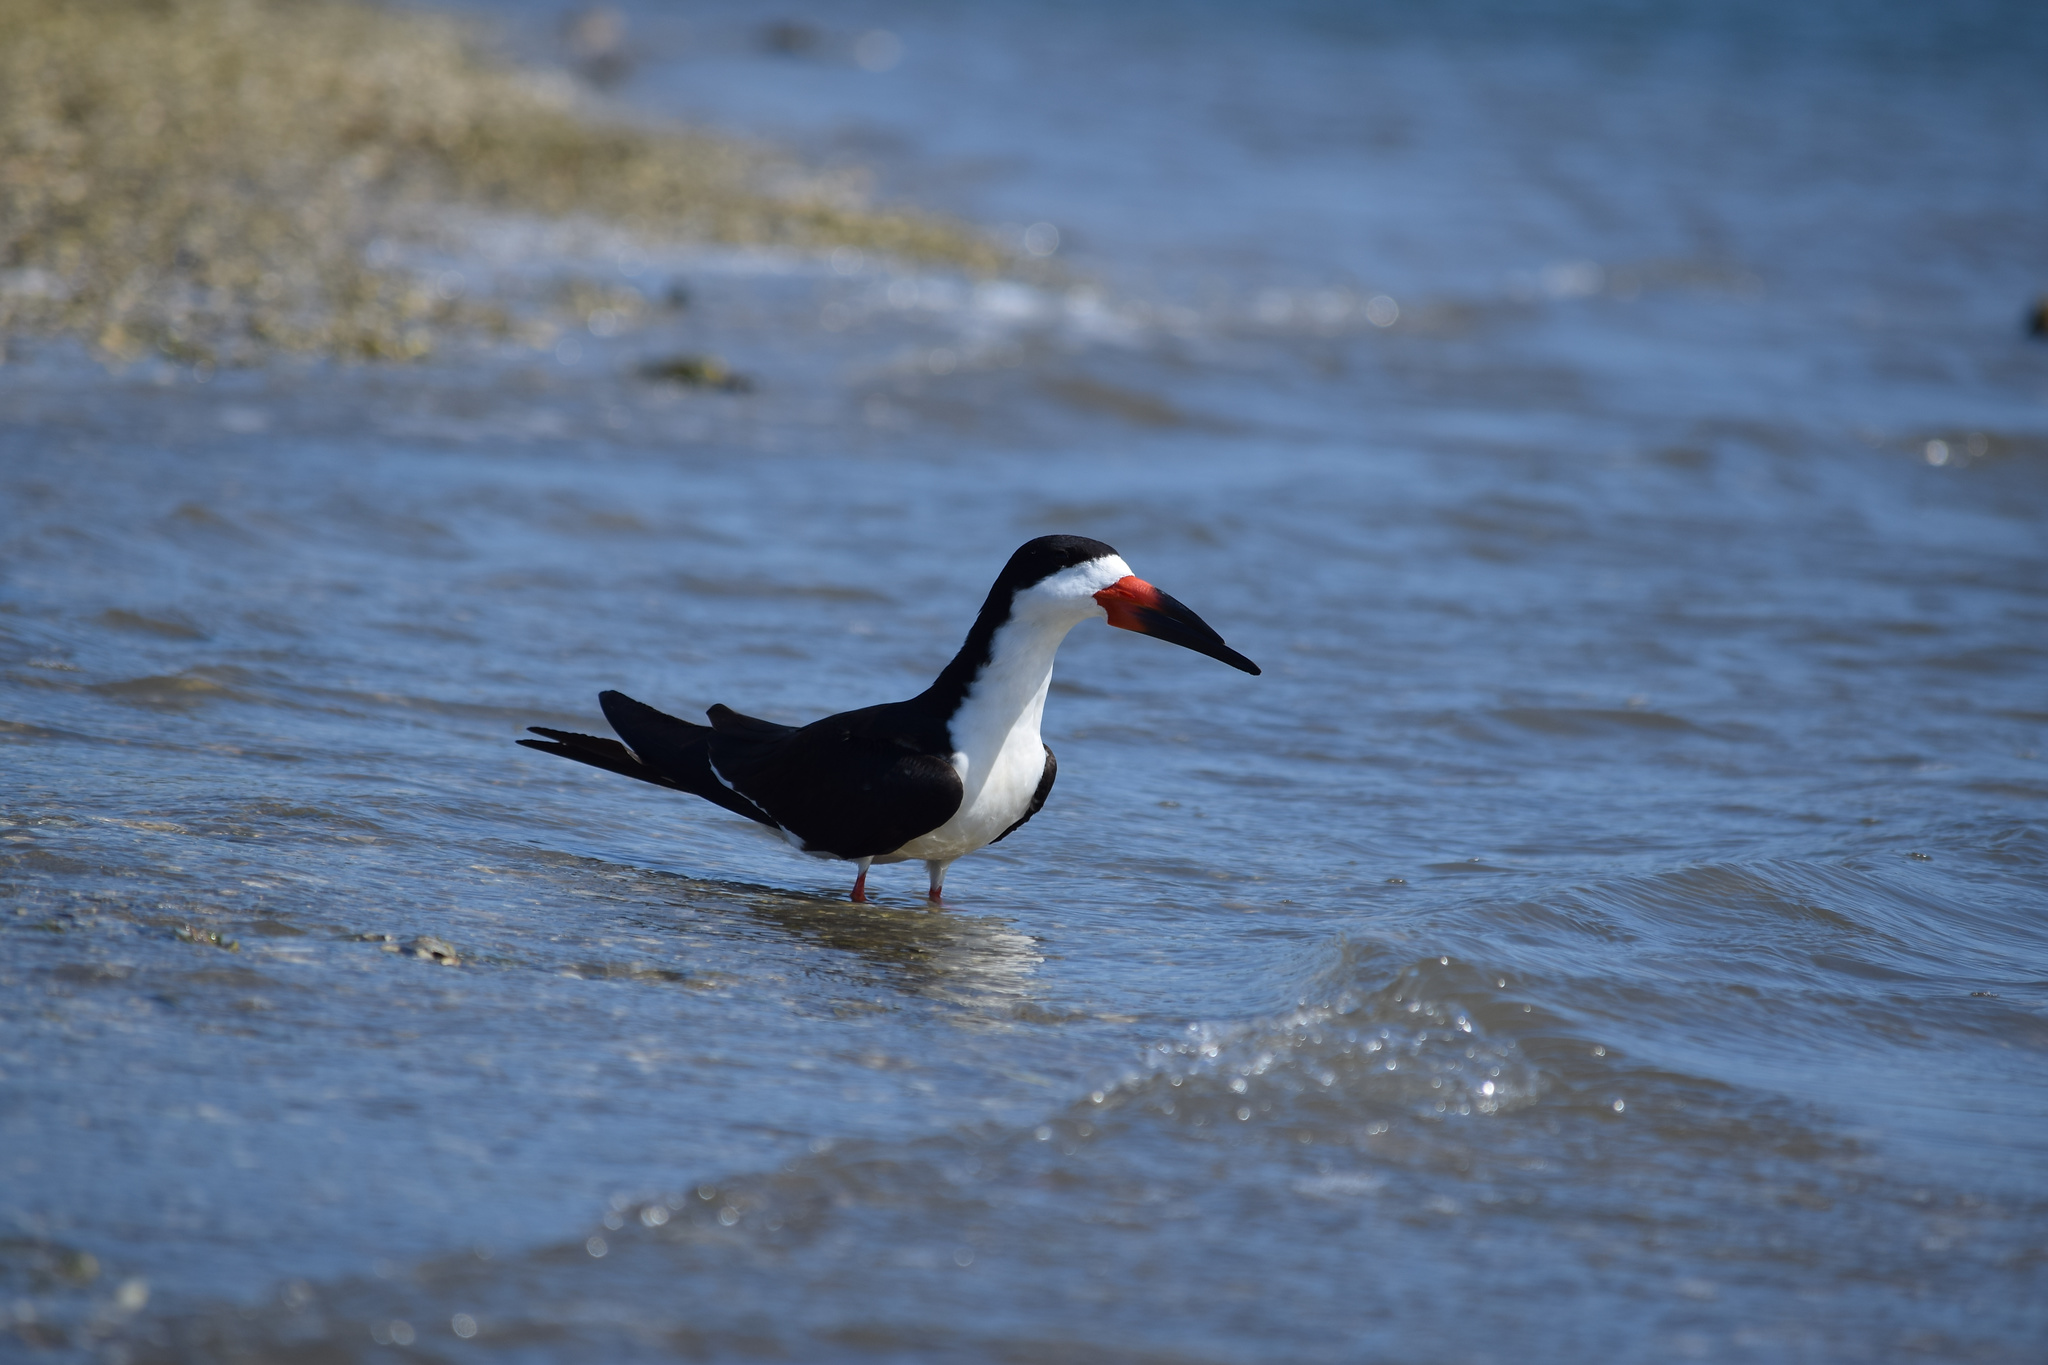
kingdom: Animalia
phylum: Chordata
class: Aves
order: Charadriiformes
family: Laridae
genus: Rynchops
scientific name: Rynchops niger
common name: Black skimmer
